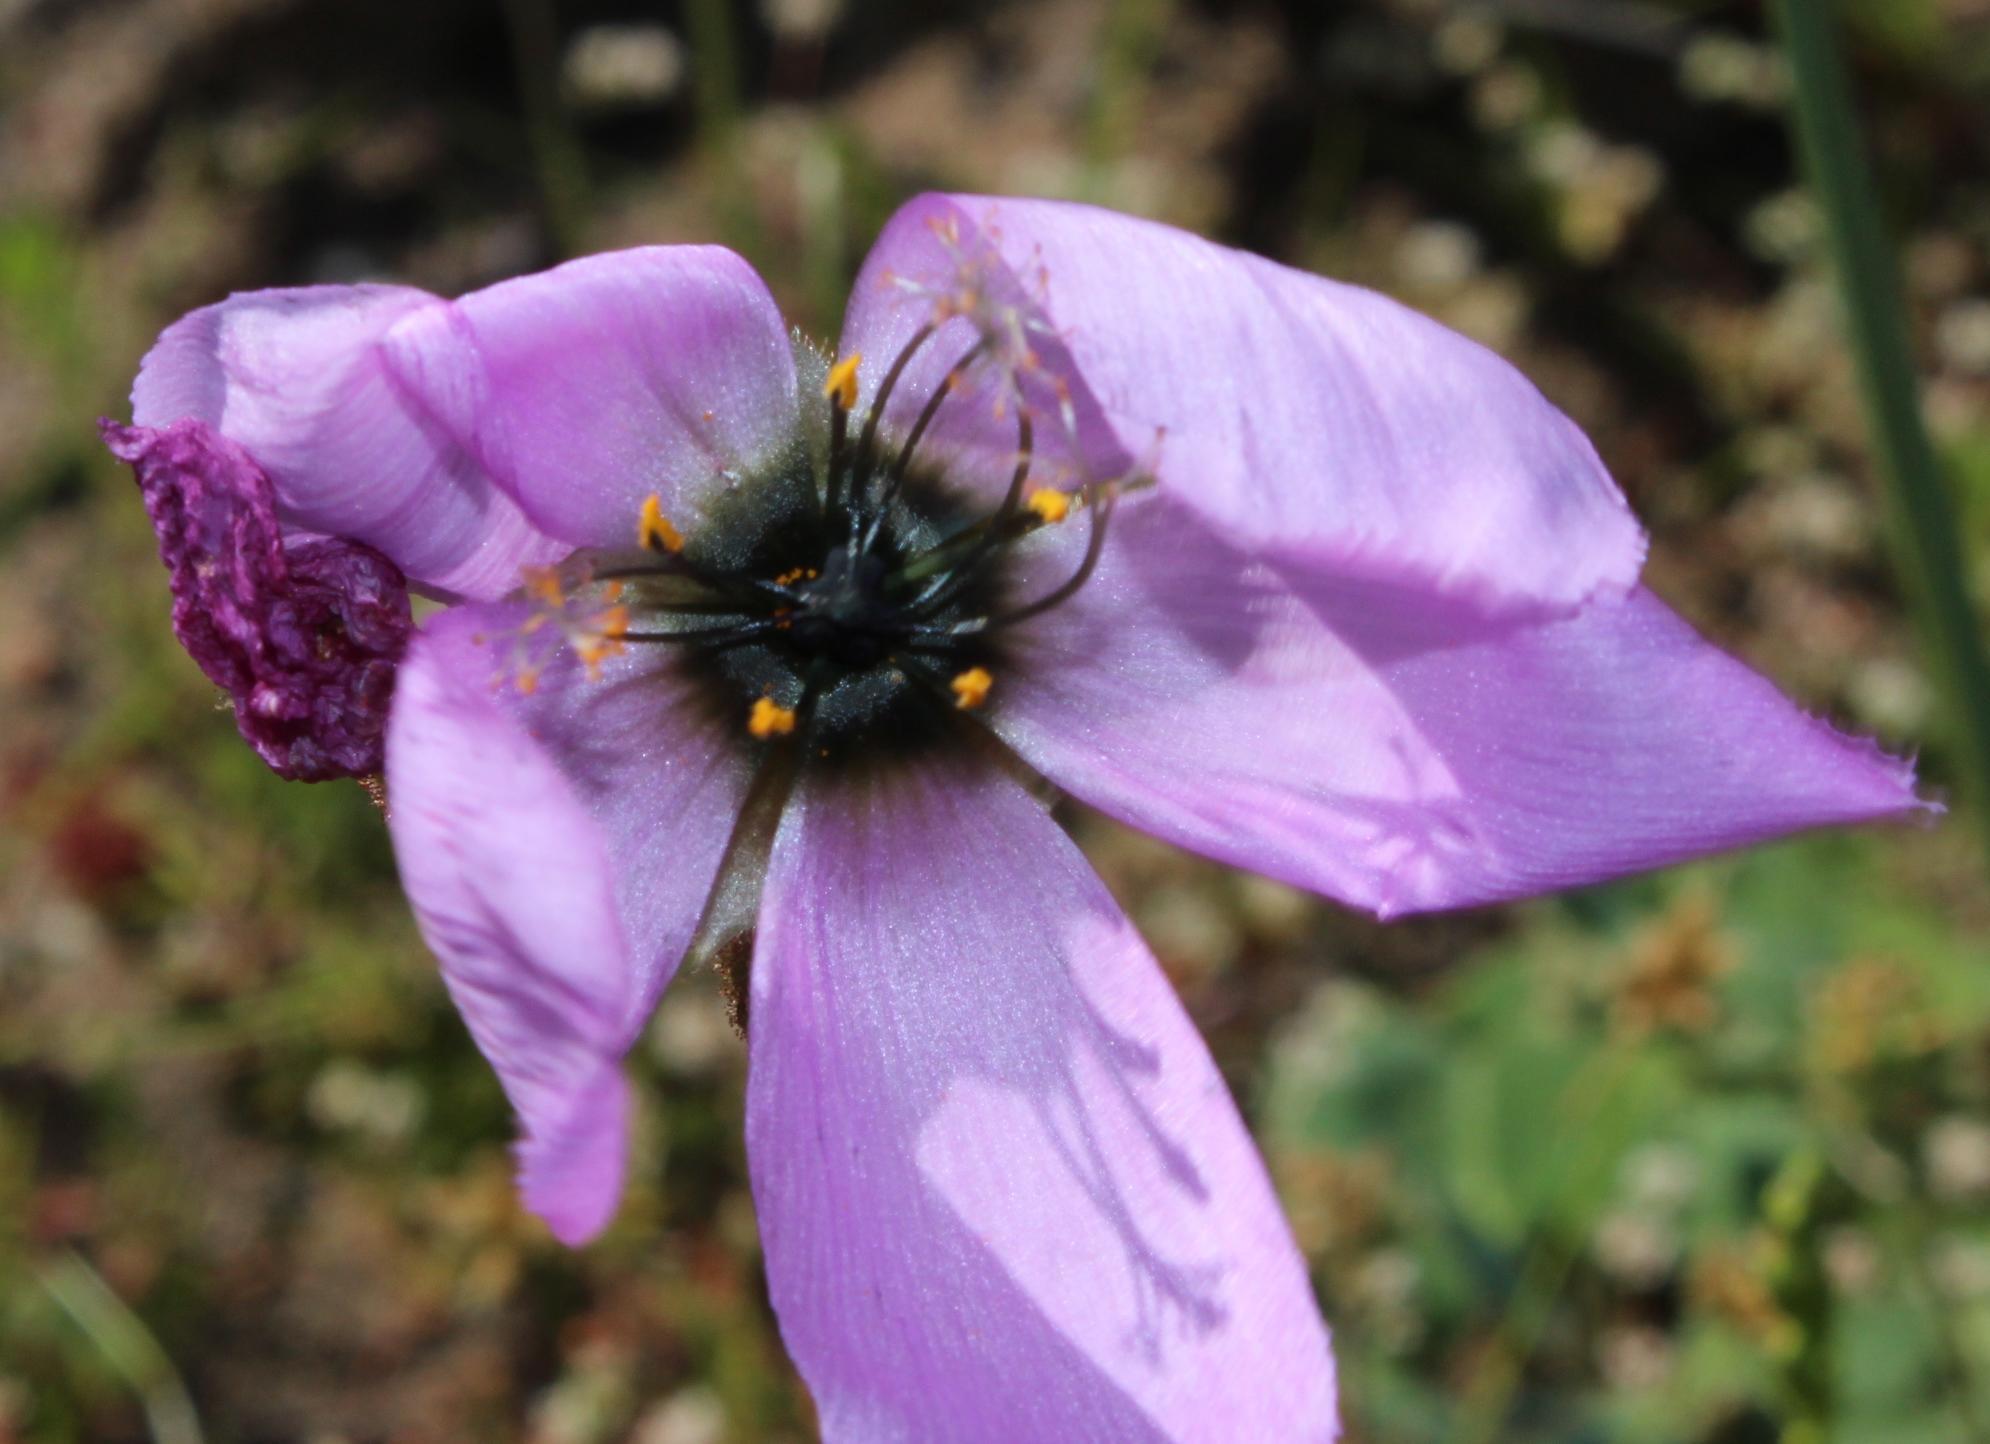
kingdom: Plantae
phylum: Tracheophyta
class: Magnoliopsida
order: Caryophyllales
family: Droseraceae
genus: Drosera
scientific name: Drosera pauciflora
